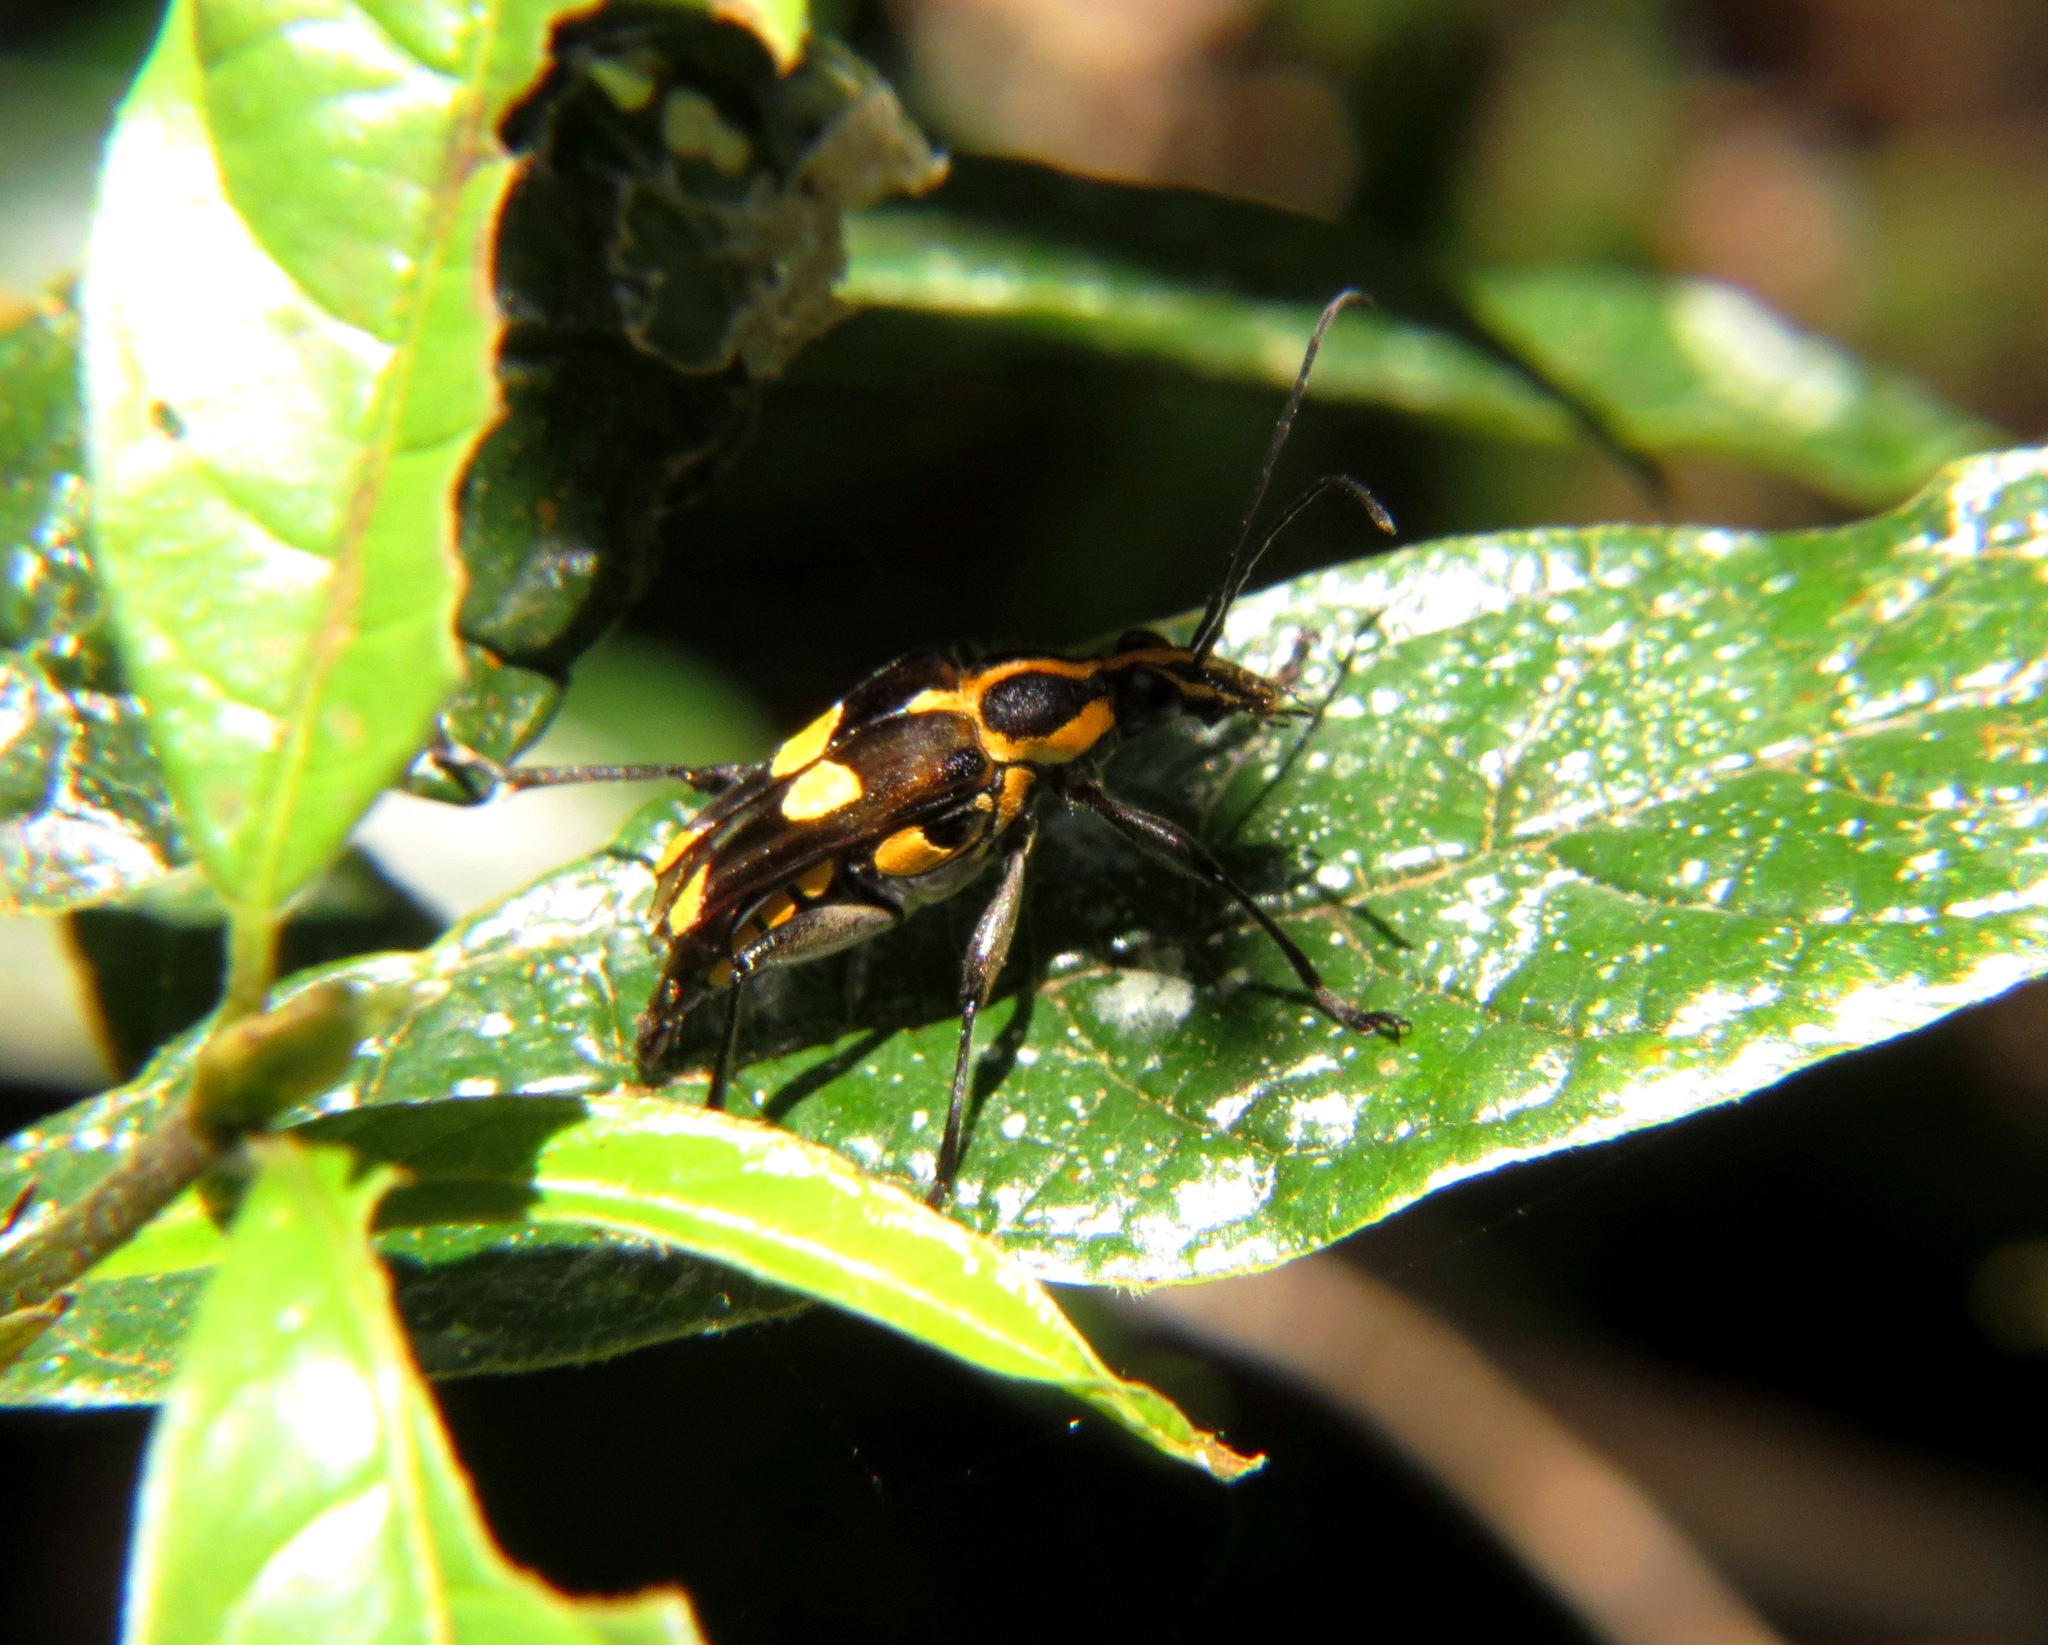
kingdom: Animalia
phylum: Arthropoda
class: Insecta
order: Coleoptera
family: Cerambycidae
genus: Anthribola
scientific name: Anthribola quinquemaculata
